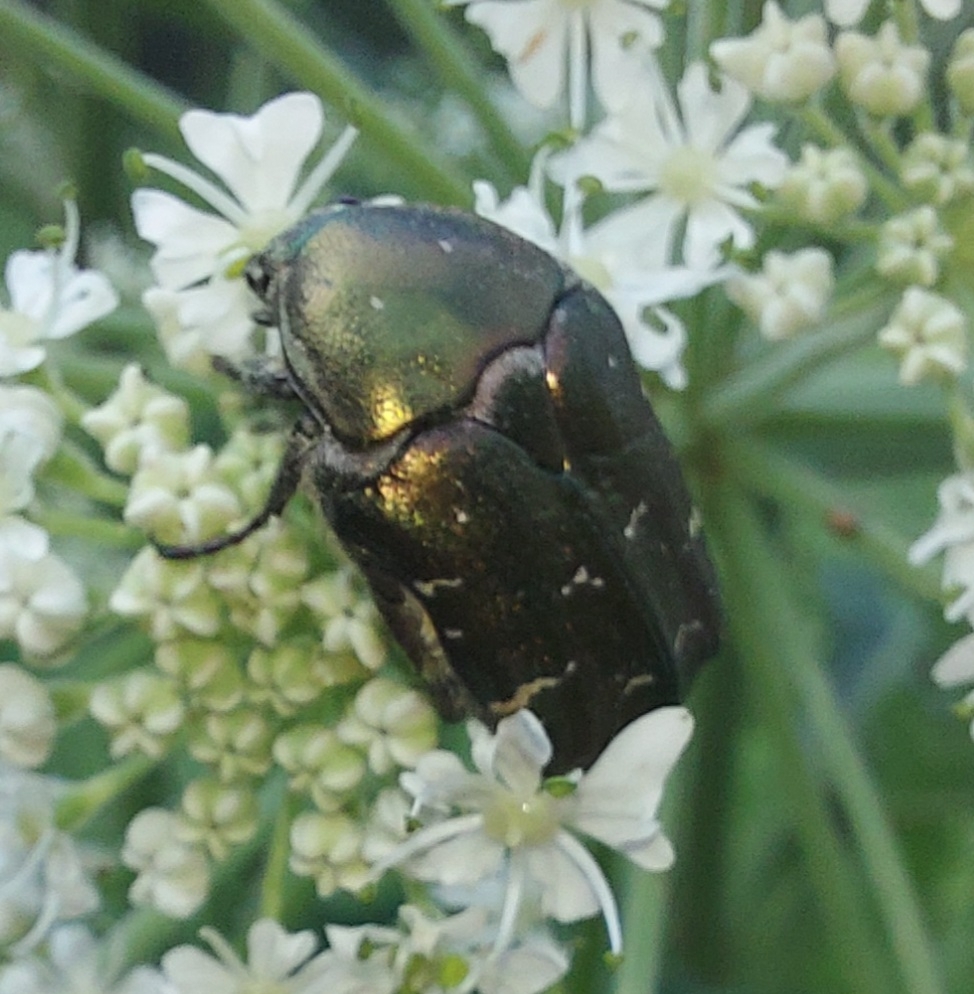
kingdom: Animalia
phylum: Arthropoda
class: Insecta
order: Coleoptera
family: Scarabaeidae
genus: Protaetia
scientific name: Protaetia cuprea
